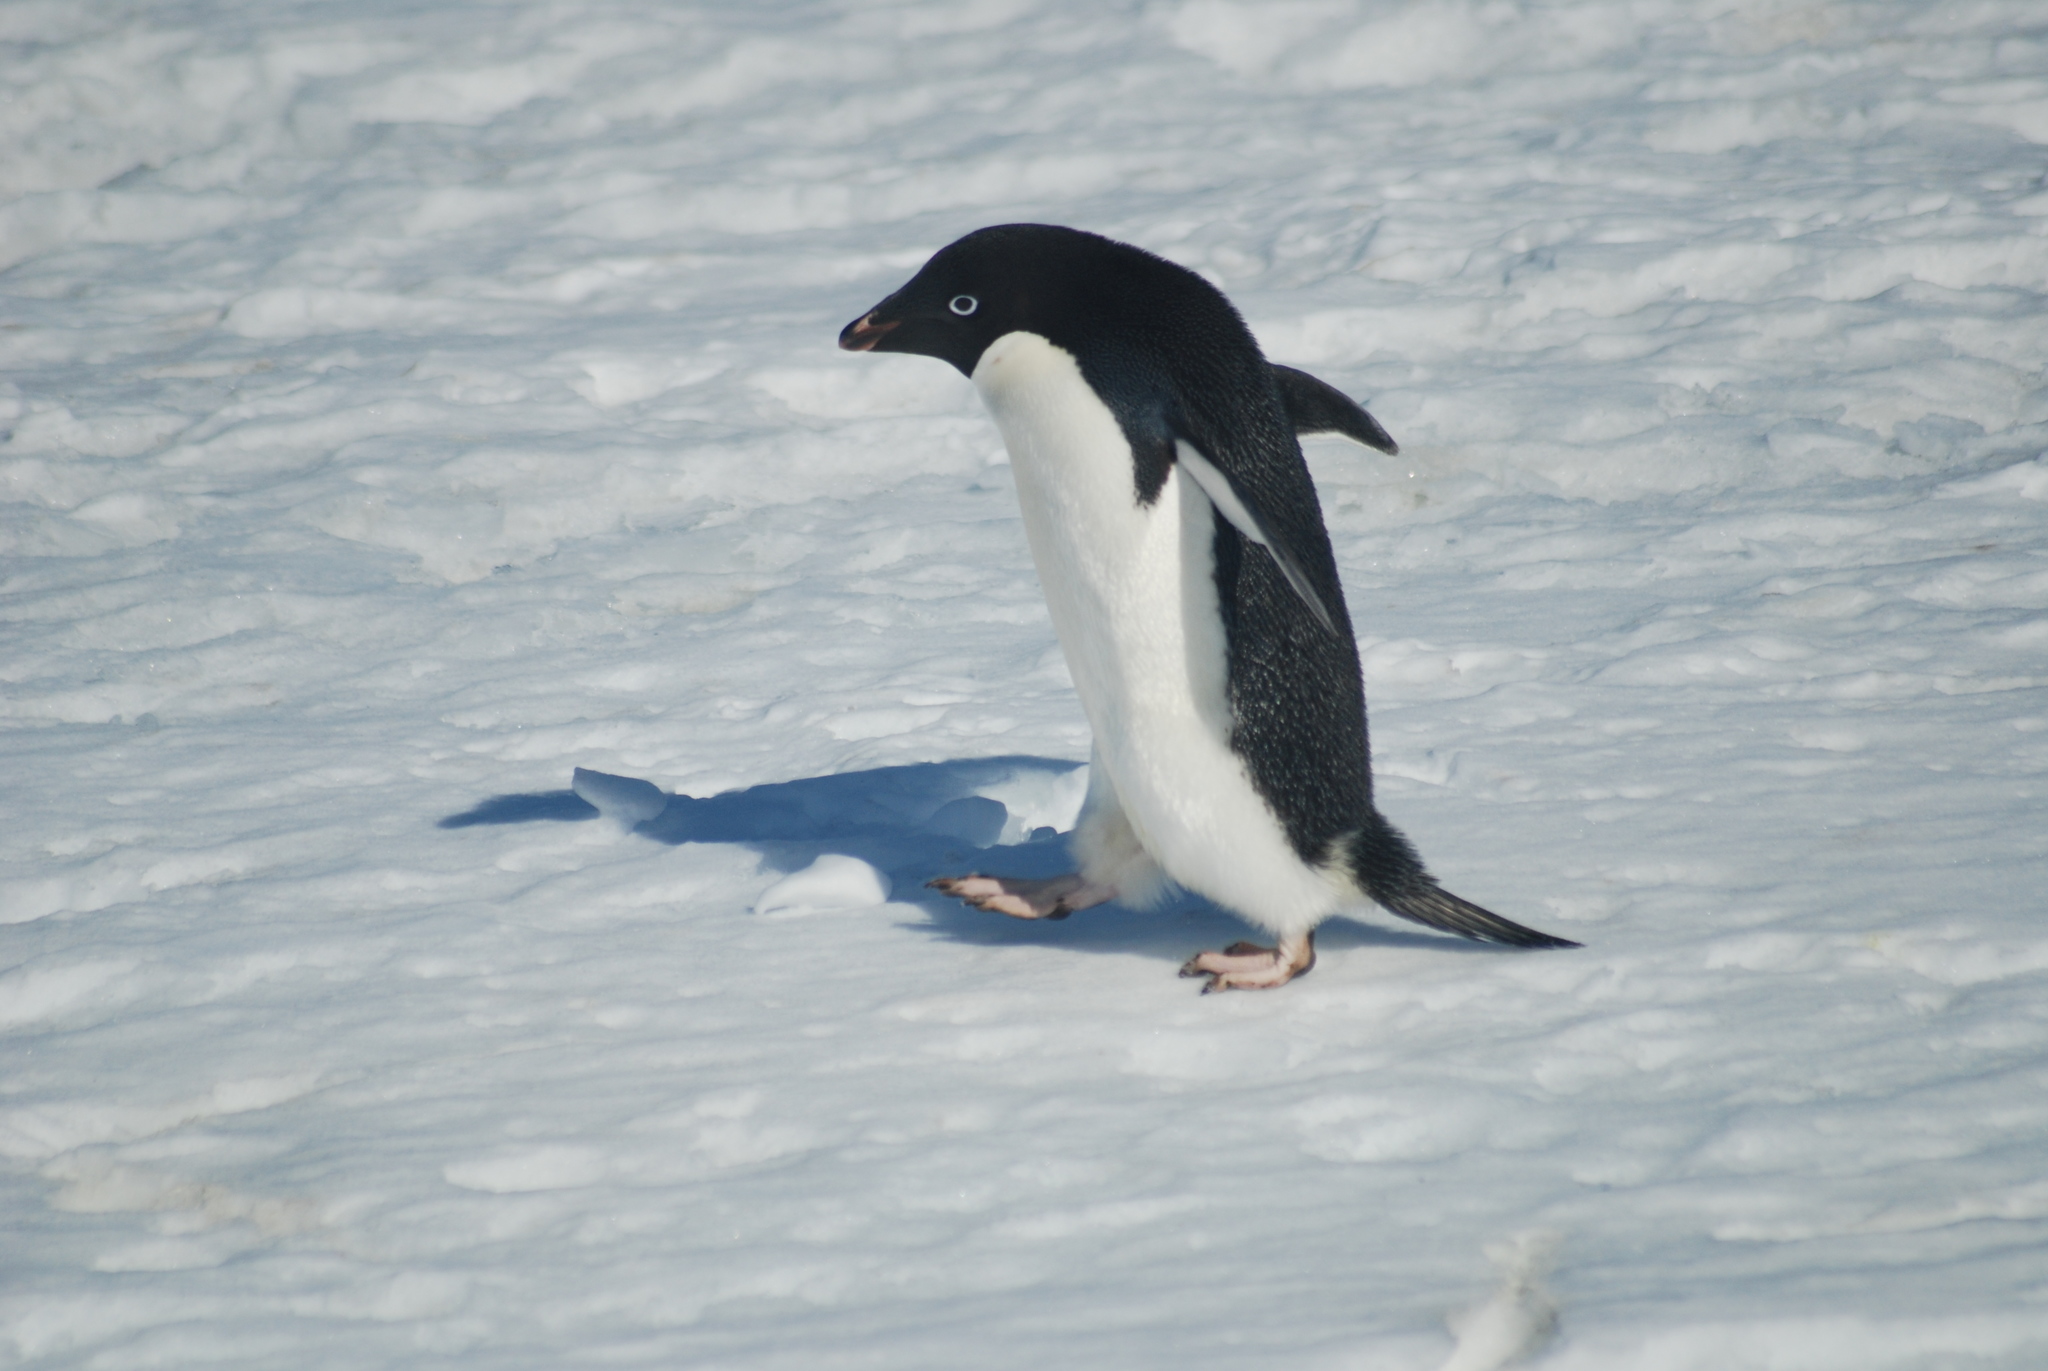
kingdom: Animalia
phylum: Chordata
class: Aves
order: Sphenisciformes
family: Spheniscidae
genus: Pygoscelis
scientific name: Pygoscelis adeliae
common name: Adelie penguin
